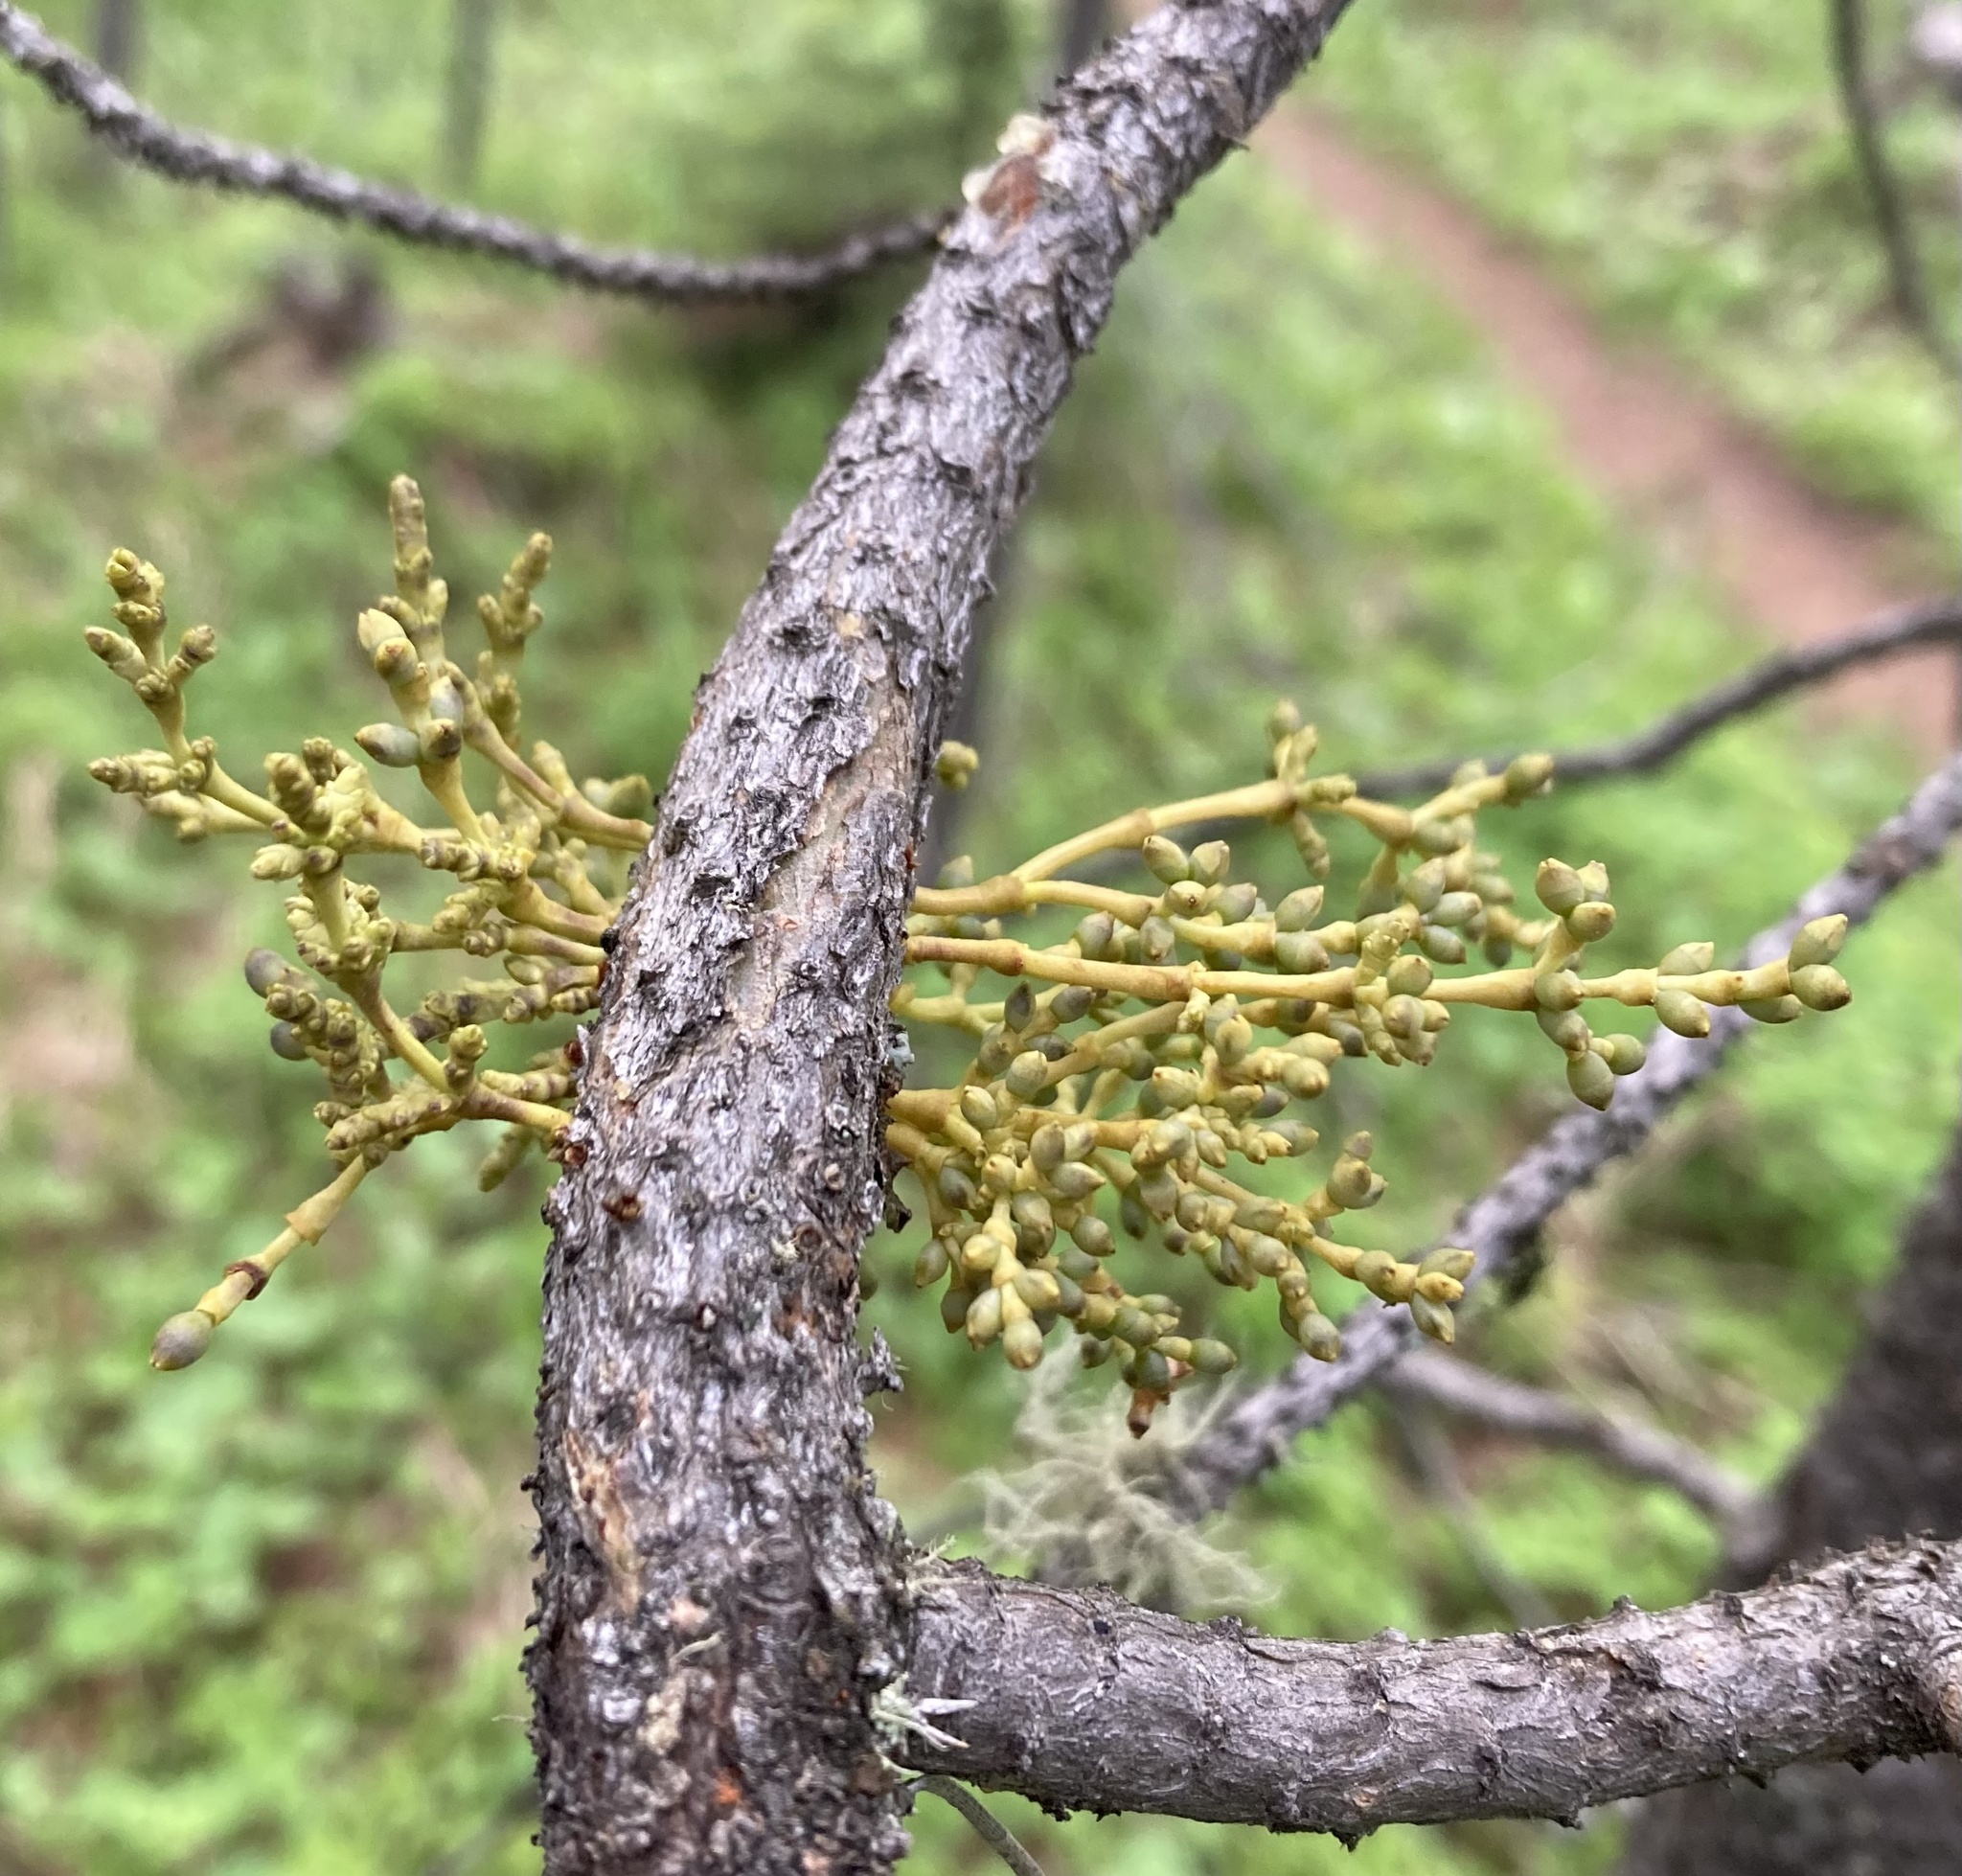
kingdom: Plantae
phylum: Tracheophyta
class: Magnoliopsida
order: Santalales
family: Viscaceae
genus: Arceuthobium
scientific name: Arceuthobium americanum
